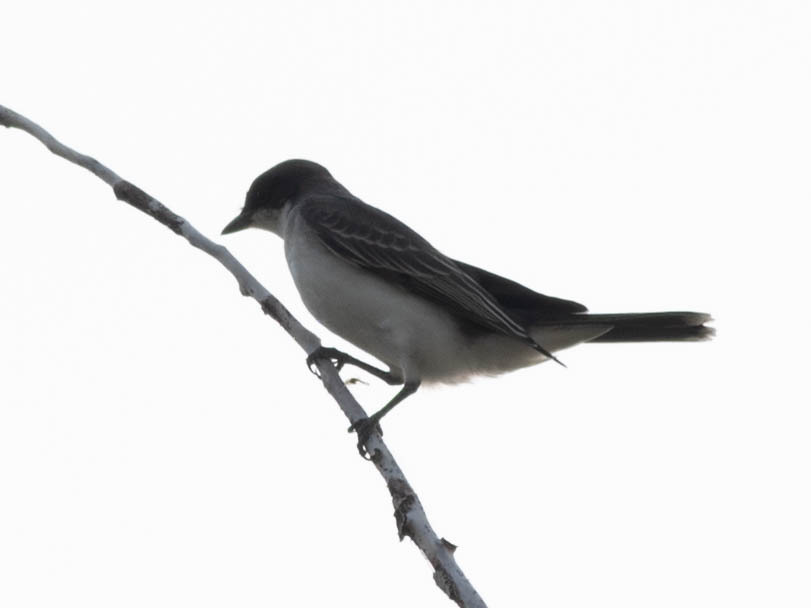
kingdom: Animalia
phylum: Chordata
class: Aves
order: Passeriformes
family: Tyrannidae
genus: Tyrannus
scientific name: Tyrannus tyrannus
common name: Eastern kingbird
